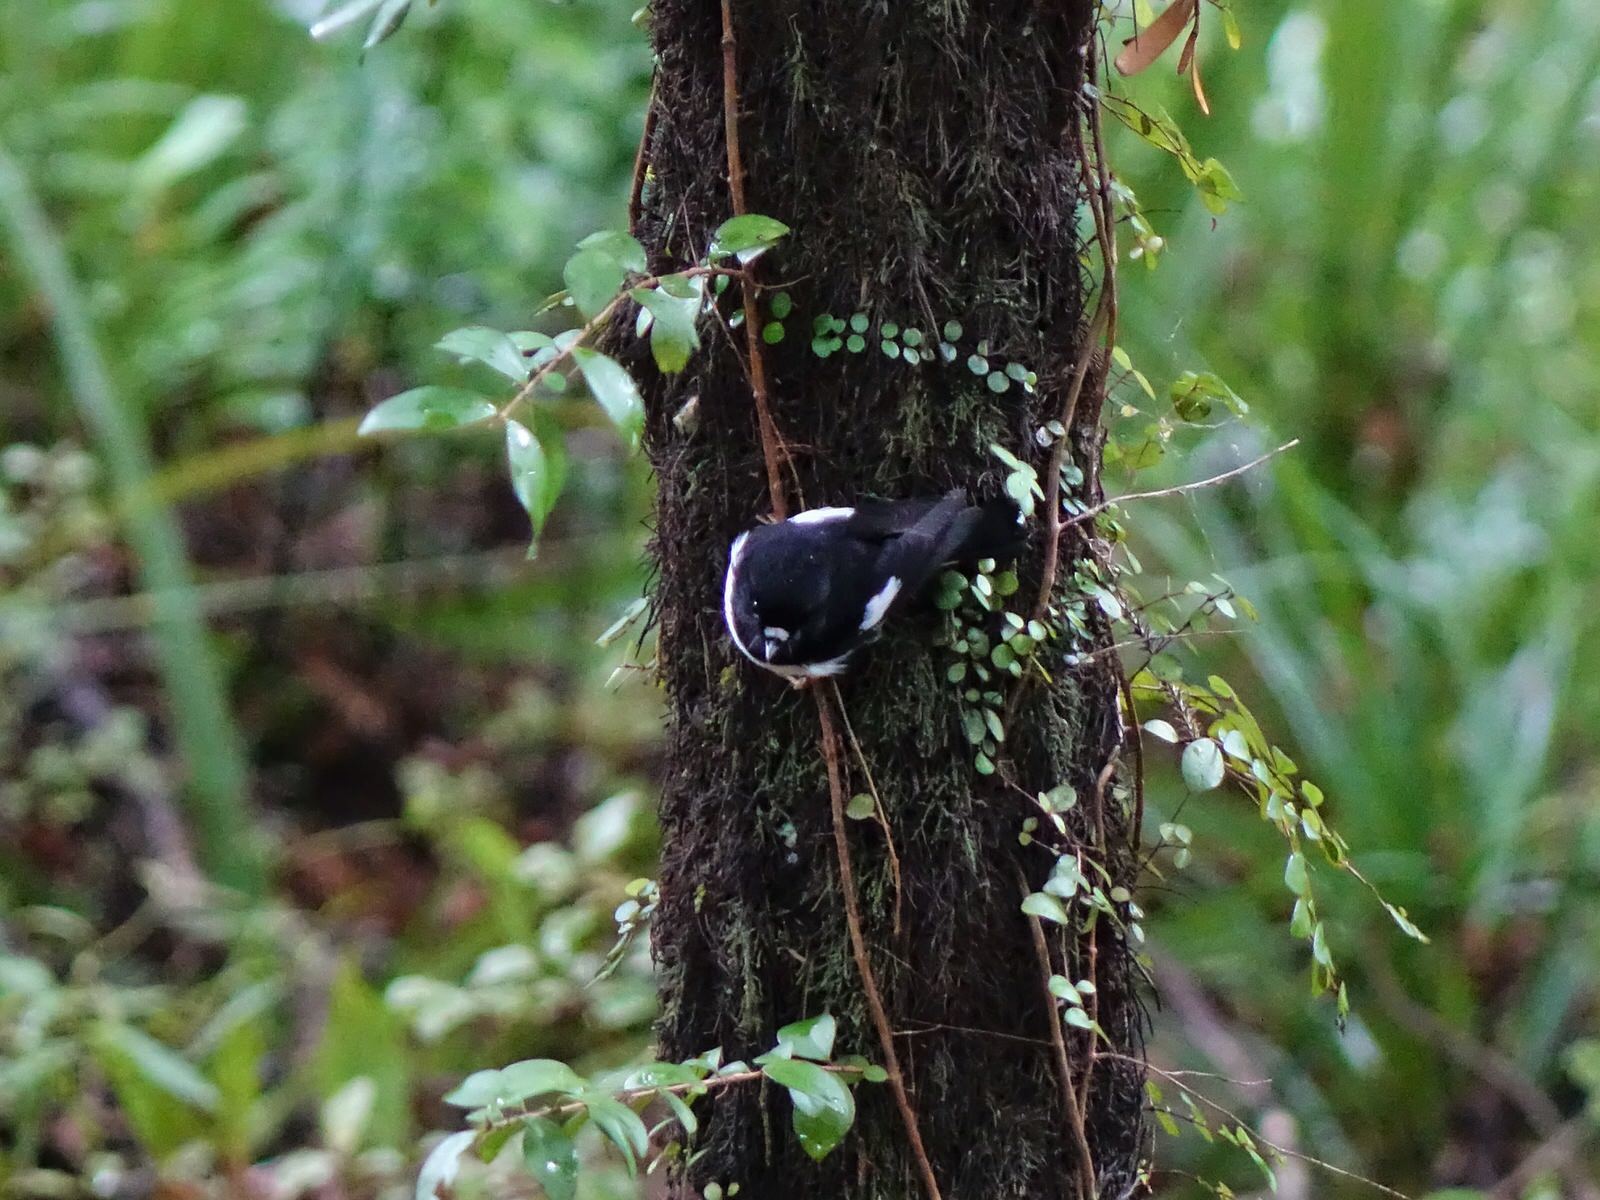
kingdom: Animalia
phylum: Chordata
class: Aves
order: Passeriformes
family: Petroicidae
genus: Petroica
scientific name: Petroica macrocephala
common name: Tomtit
